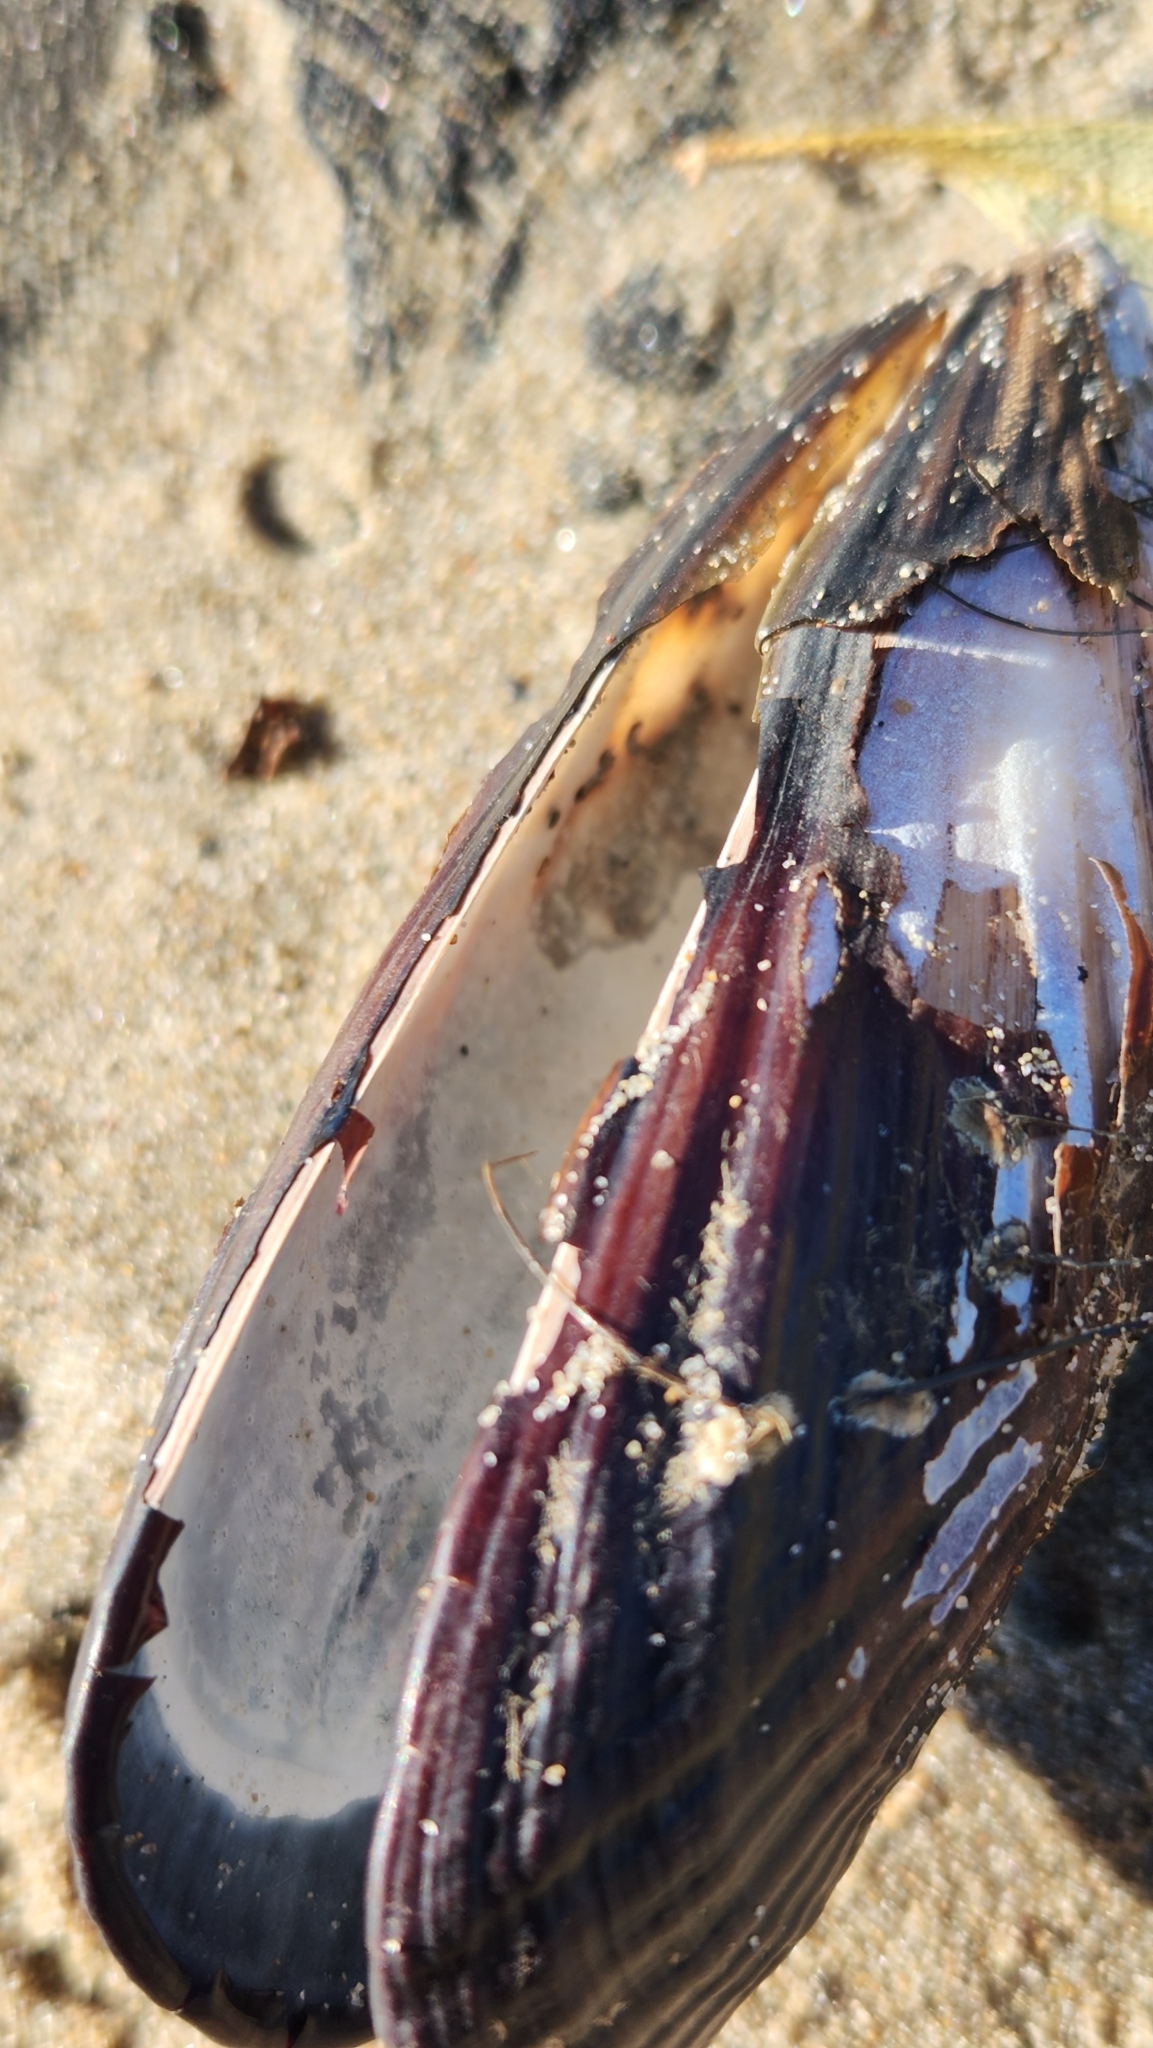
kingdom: Animalia
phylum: Mollusca
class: Bivalvia
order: Mytilida
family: Mytilidae
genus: Mytilus
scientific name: Mytilus californianus
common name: California mussel
